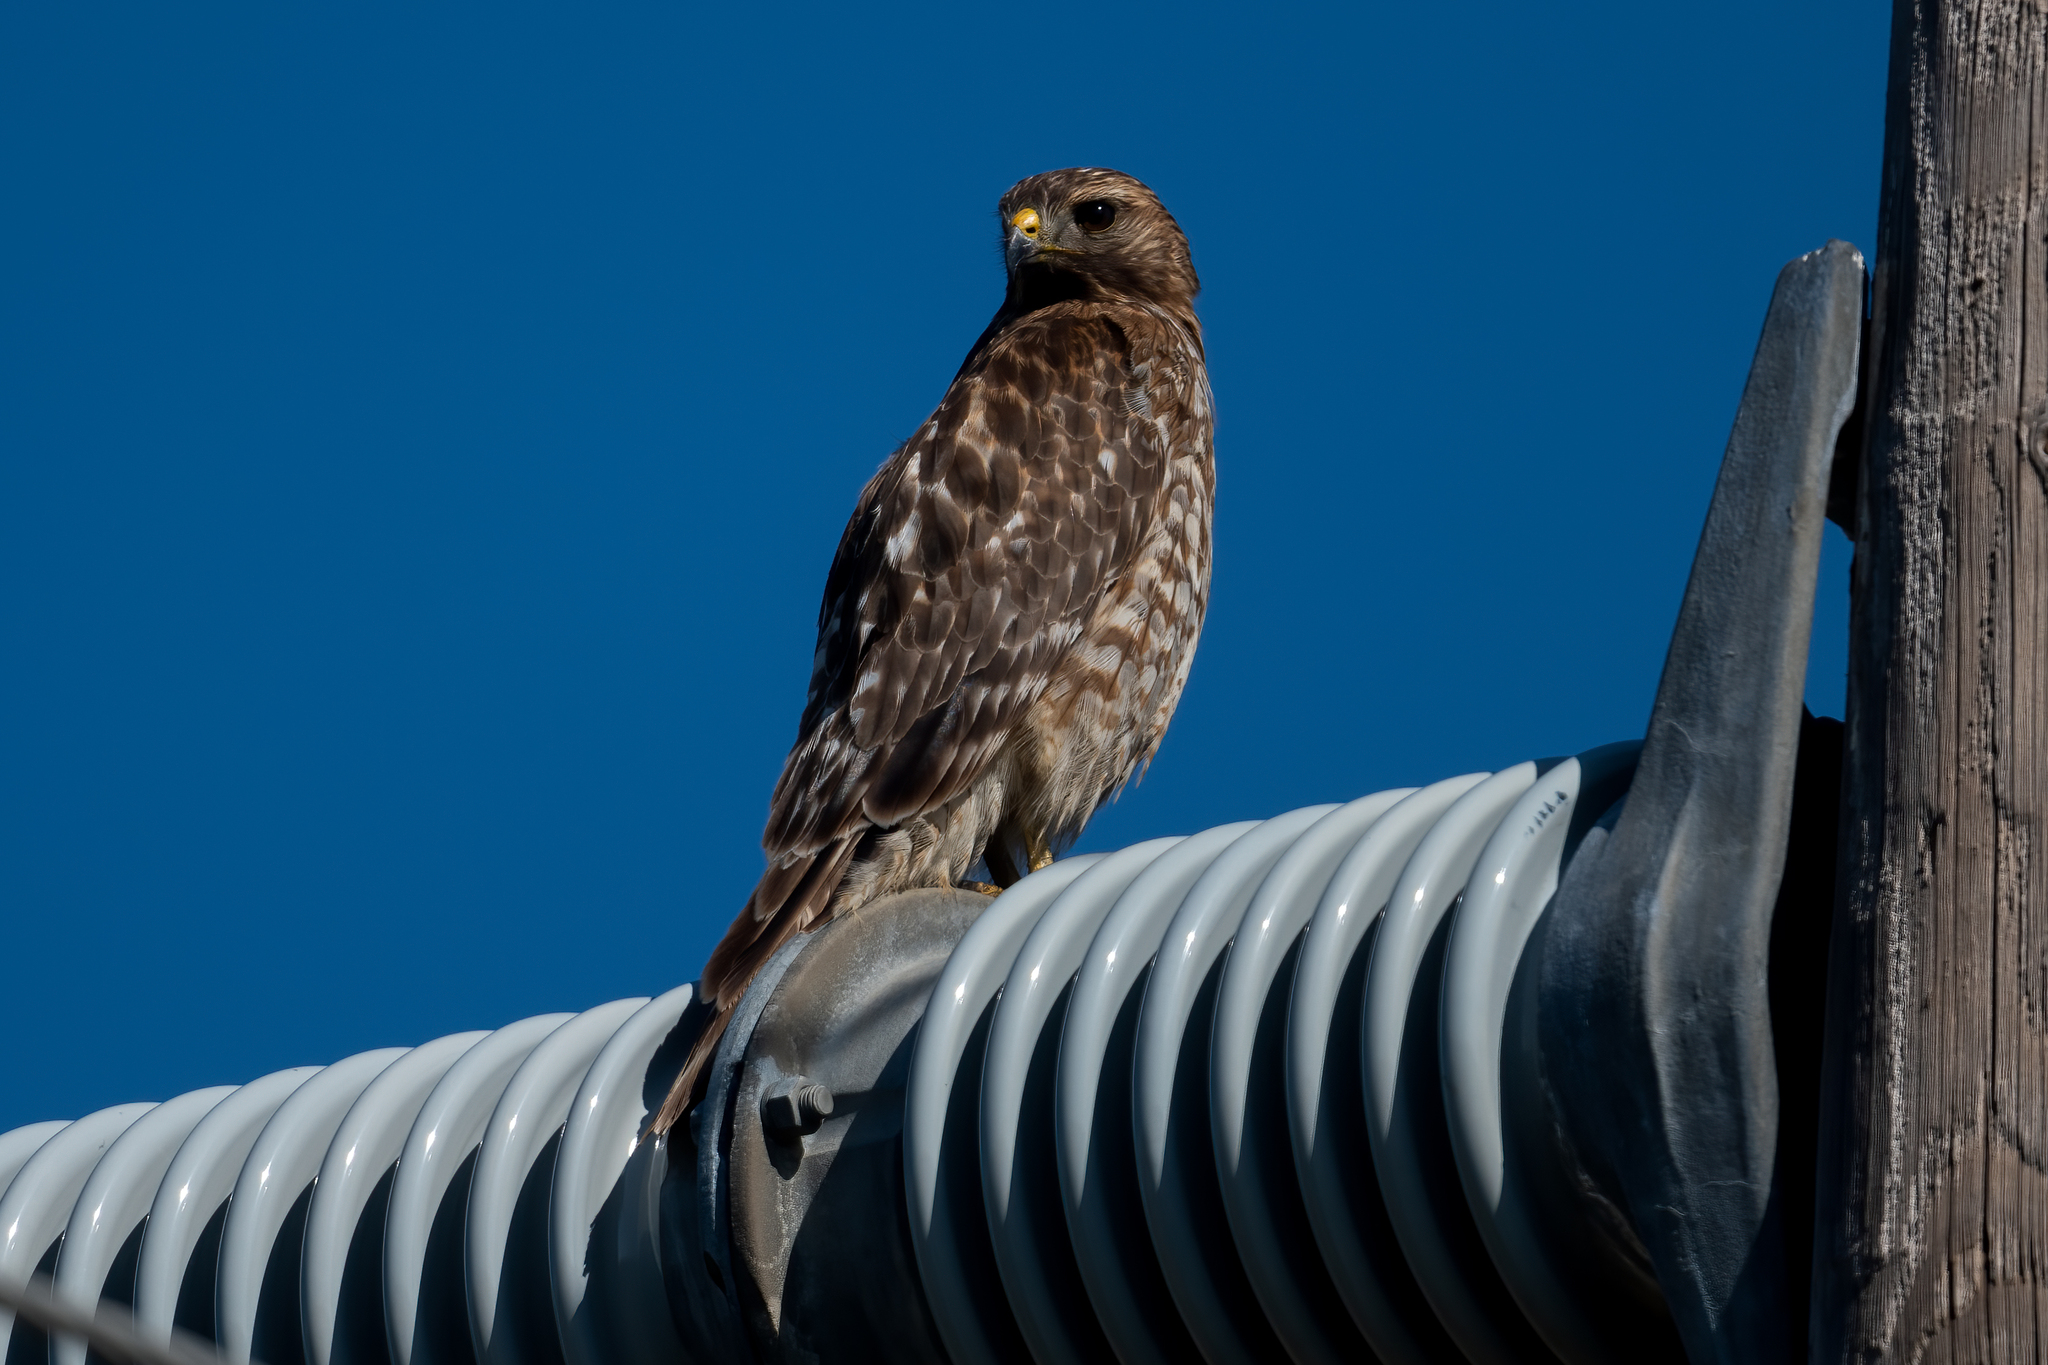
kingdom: Animalia
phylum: Chordata
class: Aves
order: Accipitriformes
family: Accipitridae
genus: Buteo
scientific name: Buteo lineatus
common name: Red-shouldered hawk
